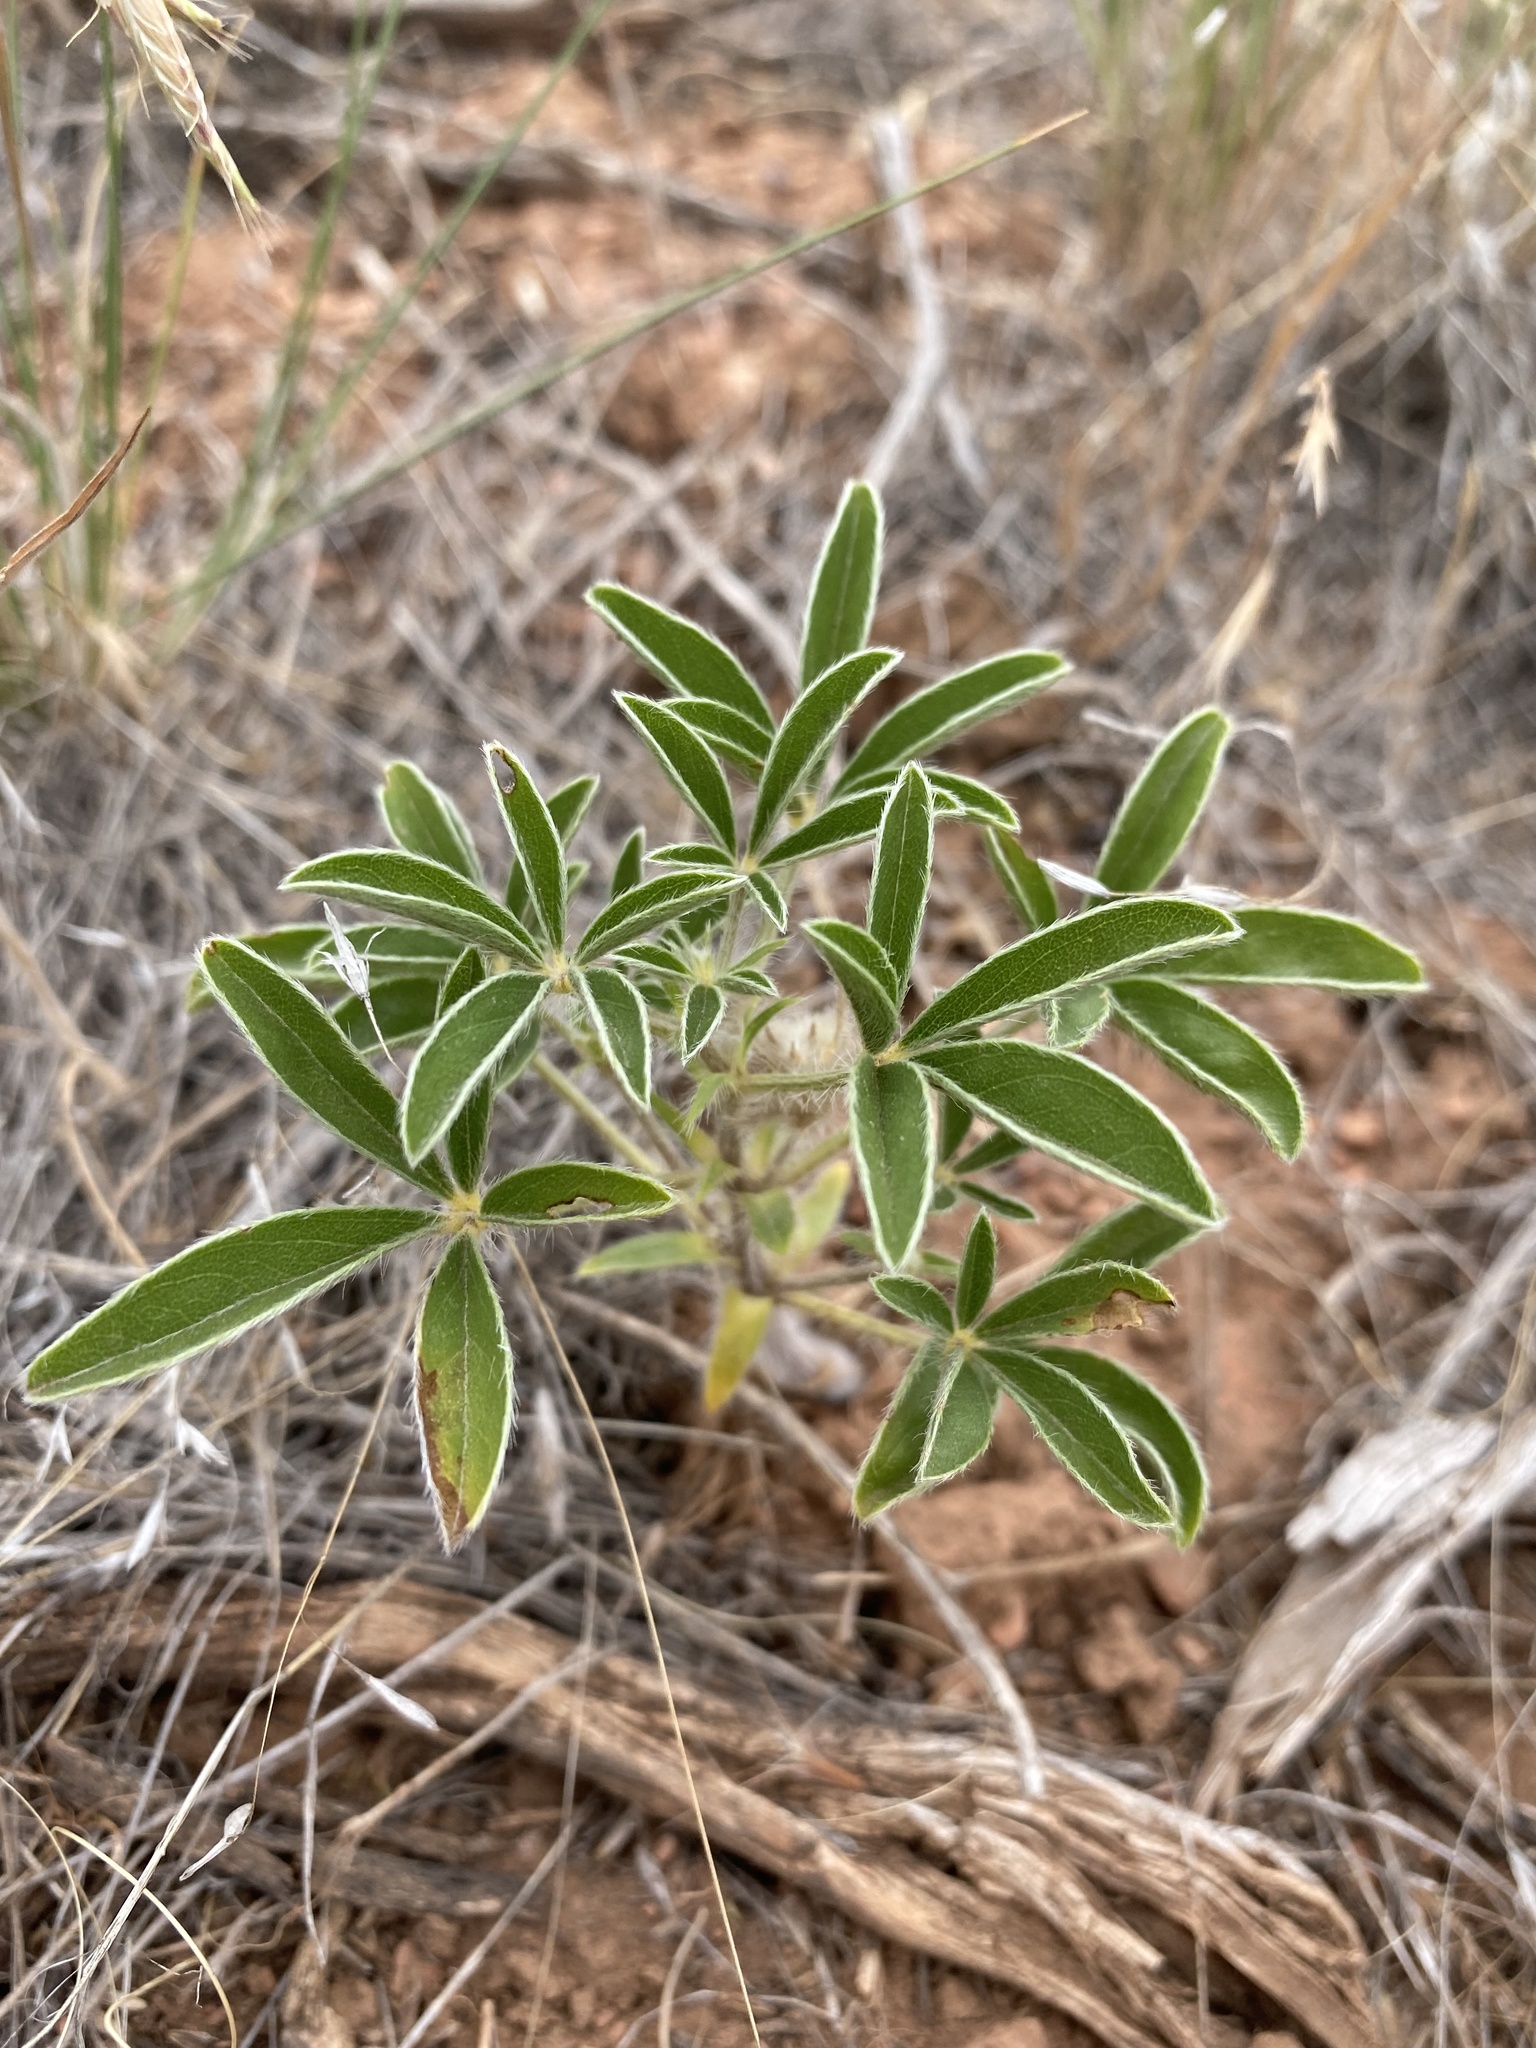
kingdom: Plantae
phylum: Tracheophyta
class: Magnoliopsida
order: Fabales
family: Fabaceae
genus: Pediomelum
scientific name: Pediomelum esculentum
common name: Indian-turnip
